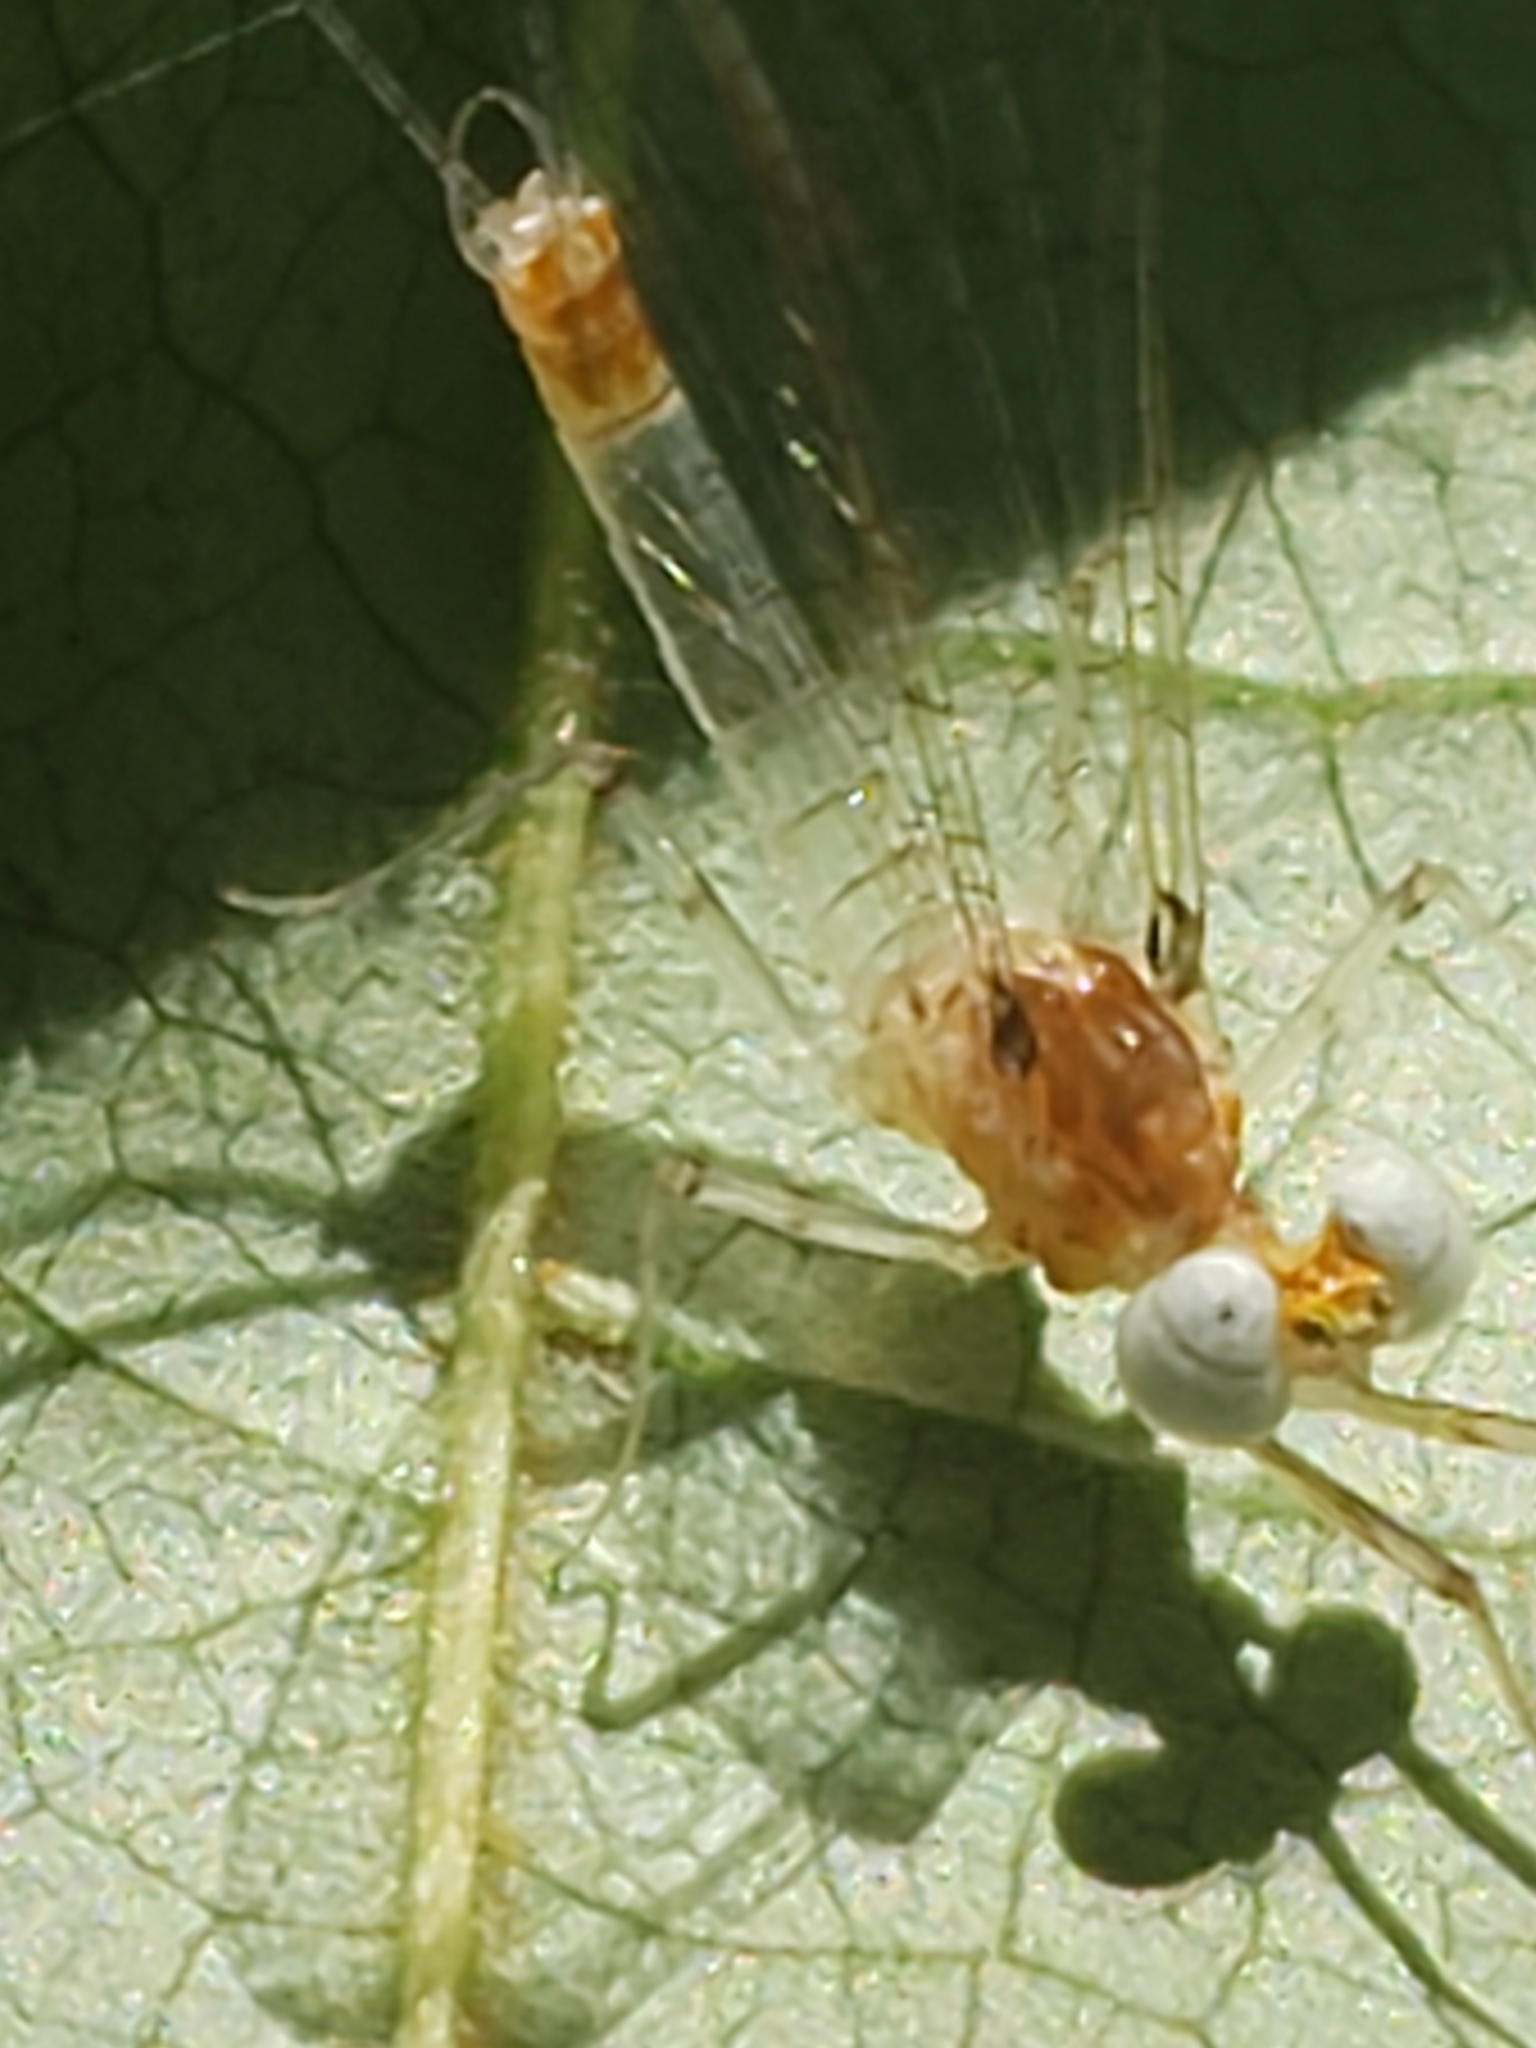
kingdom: Animalia
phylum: Arthropoda
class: Insecta
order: Ephemeroptera
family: Heptageniidae
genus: Maccaffertium
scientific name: Maccaffertium terminatum
